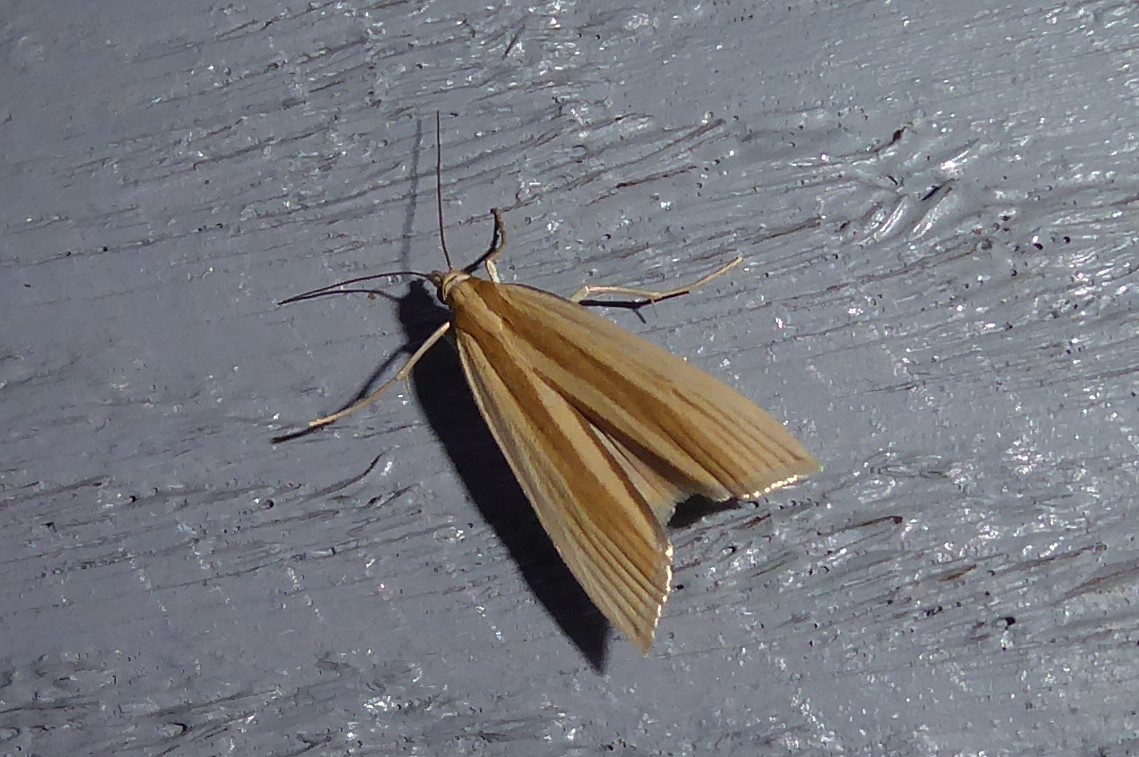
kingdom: Animalia
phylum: Arthropoda
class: Insecta
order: Lepidoptera
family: Crambidae
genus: Orocrambus
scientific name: Orocrambus angustipennis
